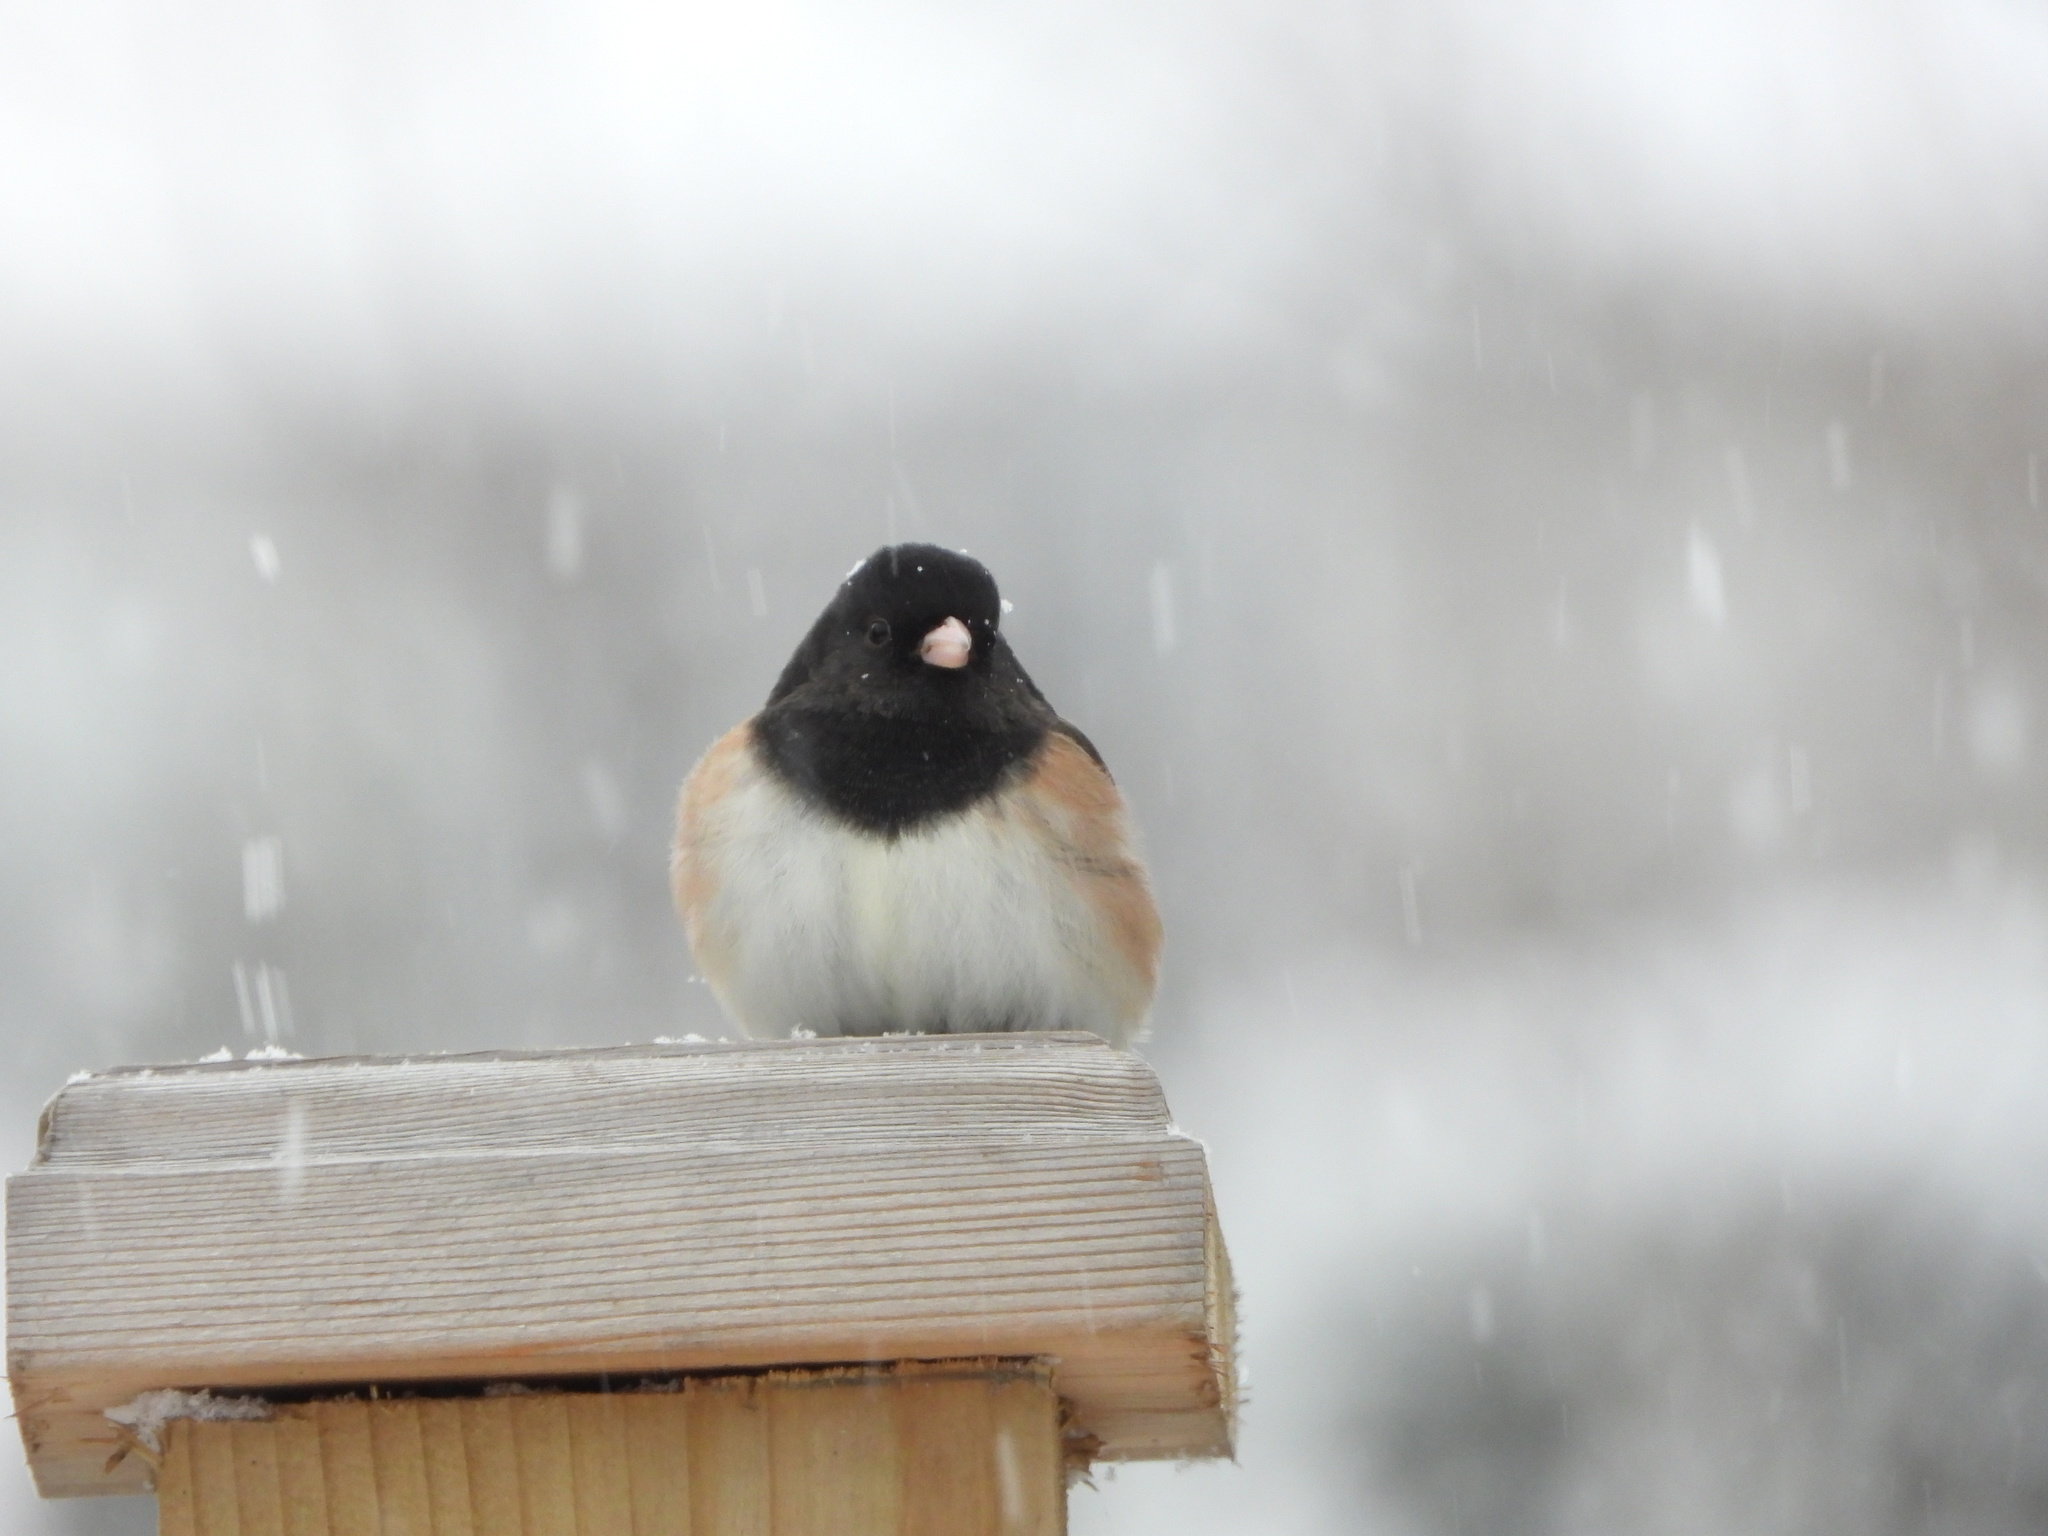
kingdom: Animalia
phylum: Chordata
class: Aves
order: Passeriformes
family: Passerellidae
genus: Junco
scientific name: Junco hyemalis
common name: Dark-eyed junco
